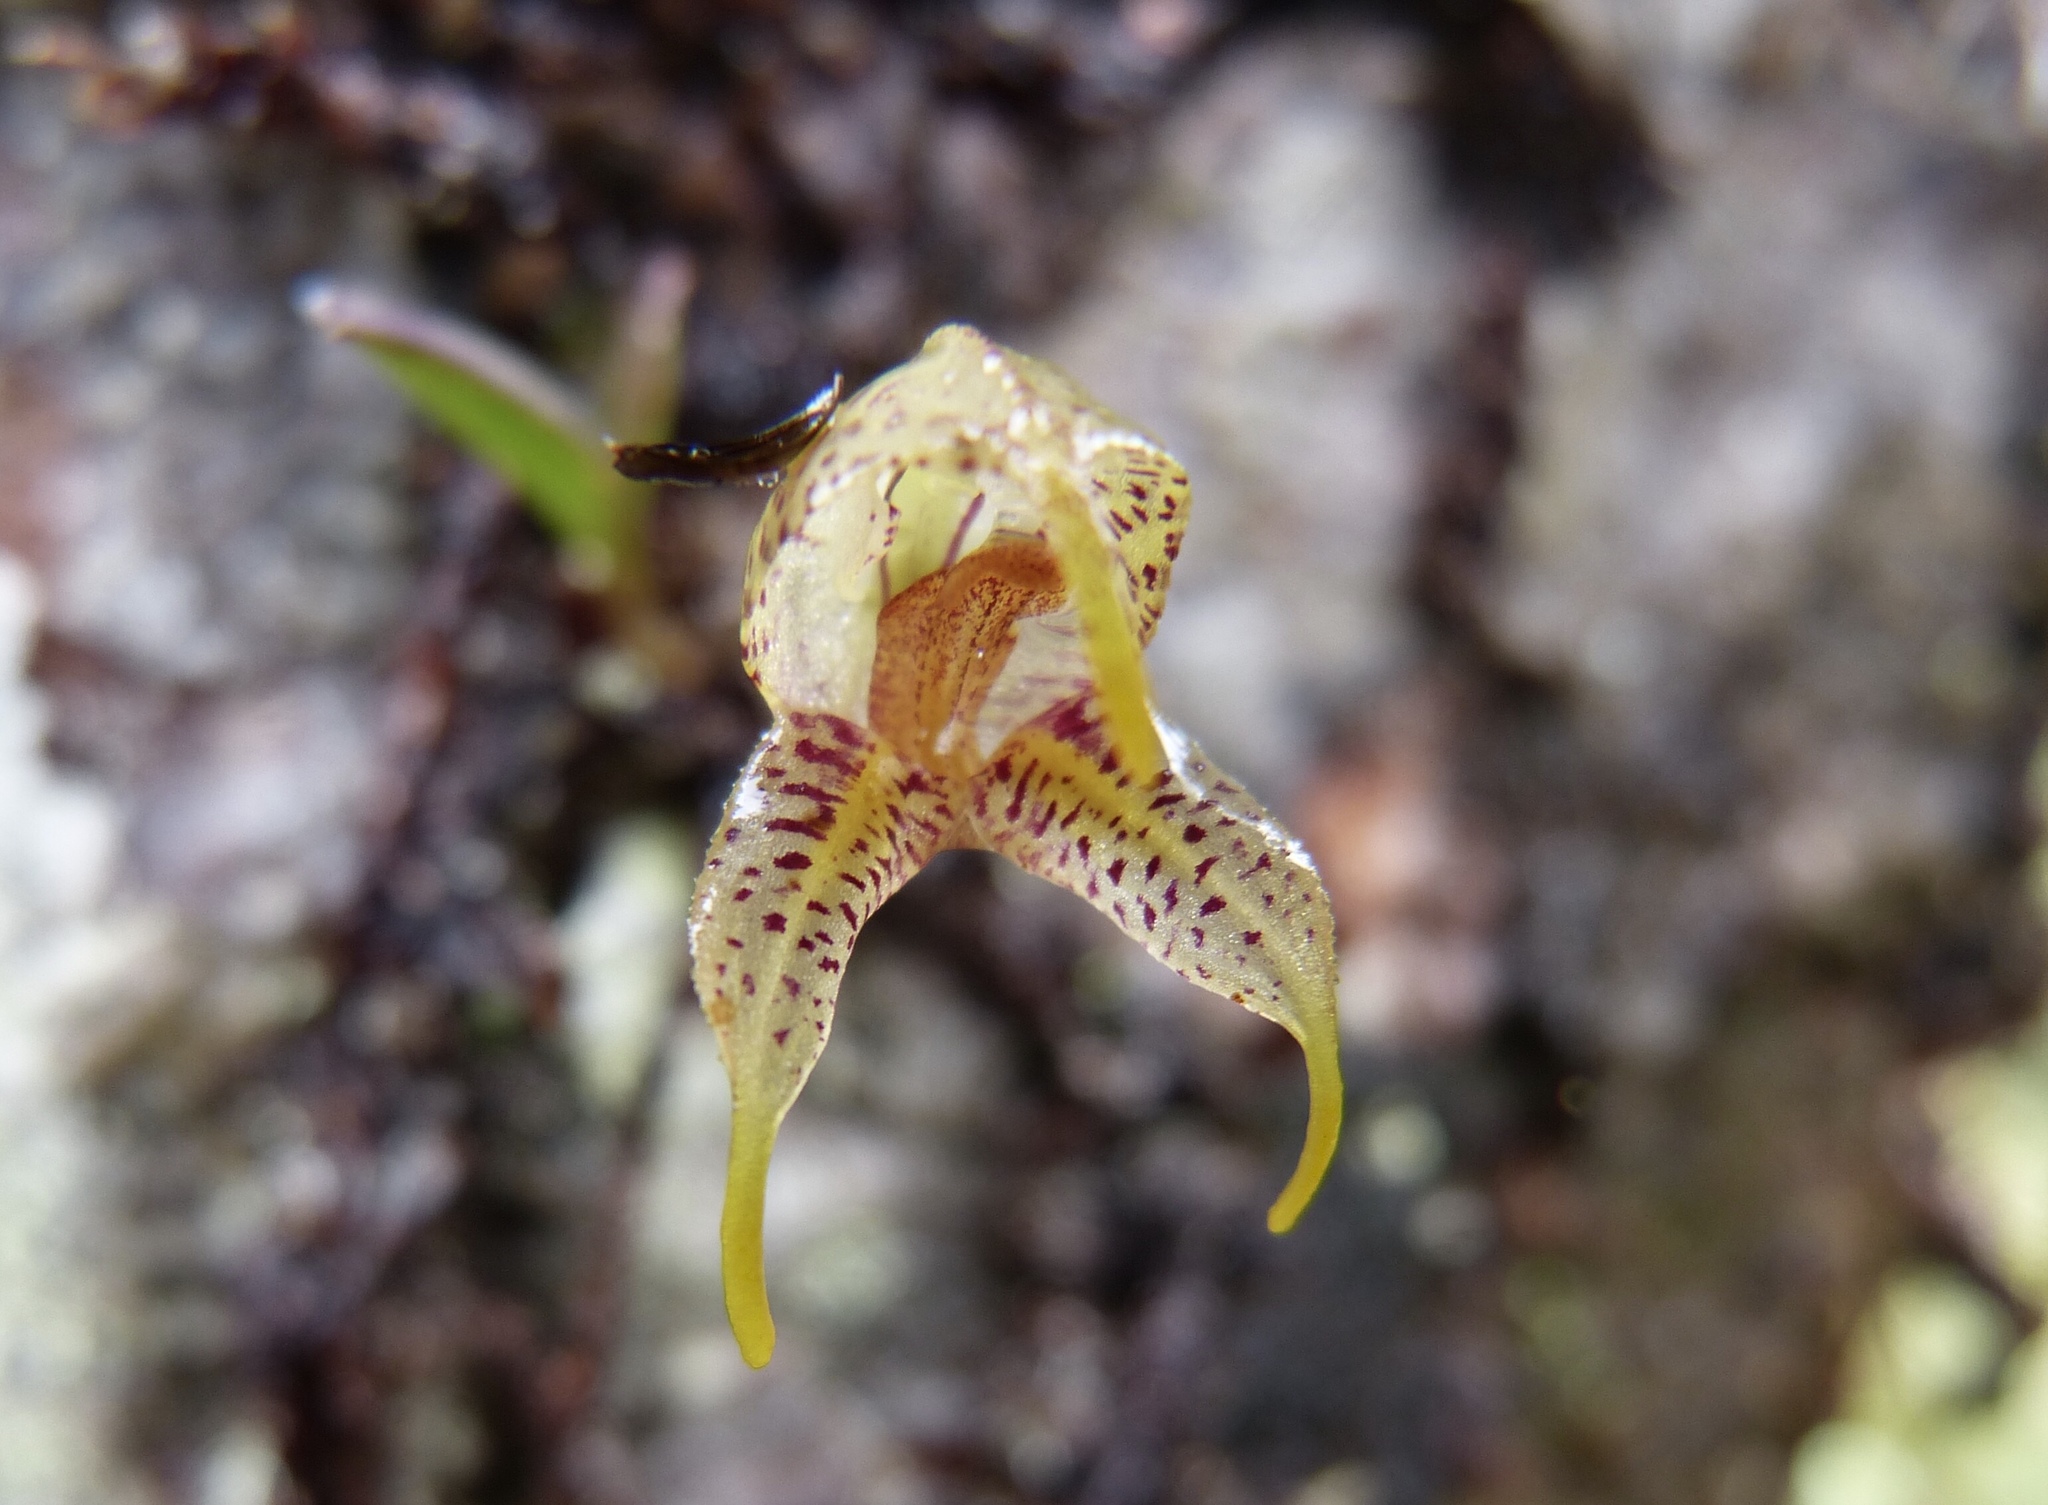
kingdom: Plantae
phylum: Tracheophyta
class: Liliopsida
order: Asparagales
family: Orchidaceae
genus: Masdevallia
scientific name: Masdevallia amanda
